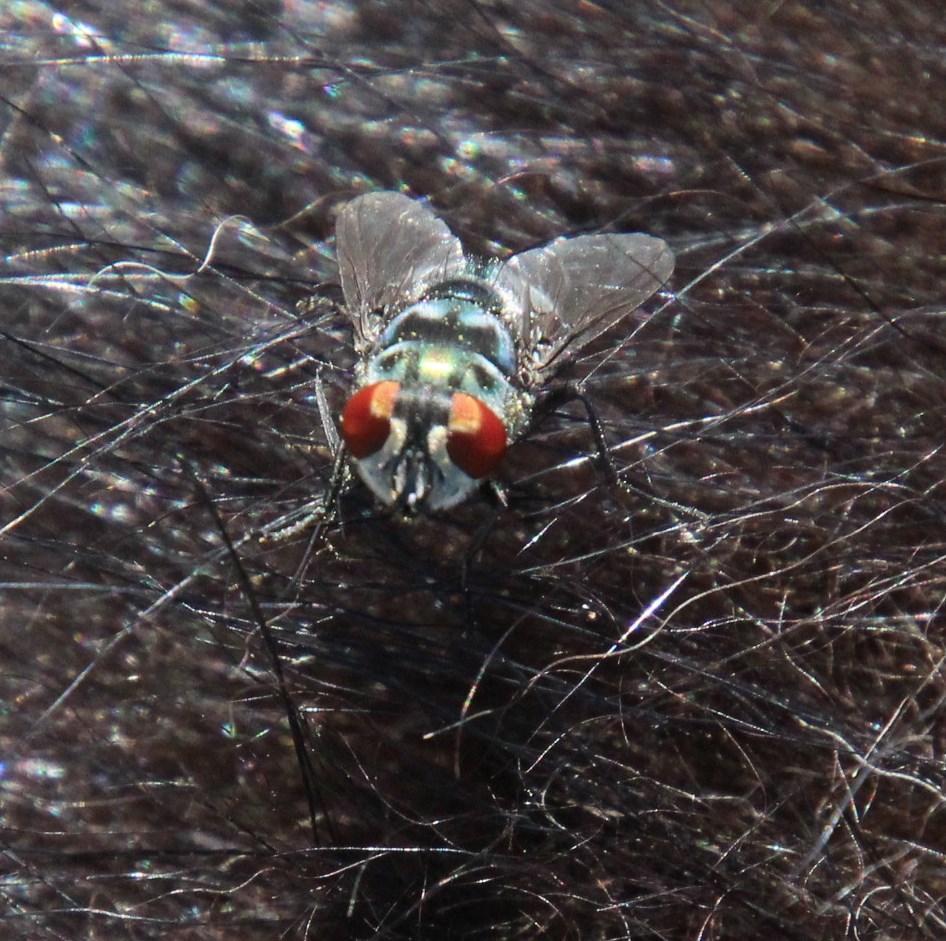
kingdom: Animalia
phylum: Arthropoda
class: Insecta
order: Diptera
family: Calliphoridae
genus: Chrysomya
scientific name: Chrysomya chloropyga
